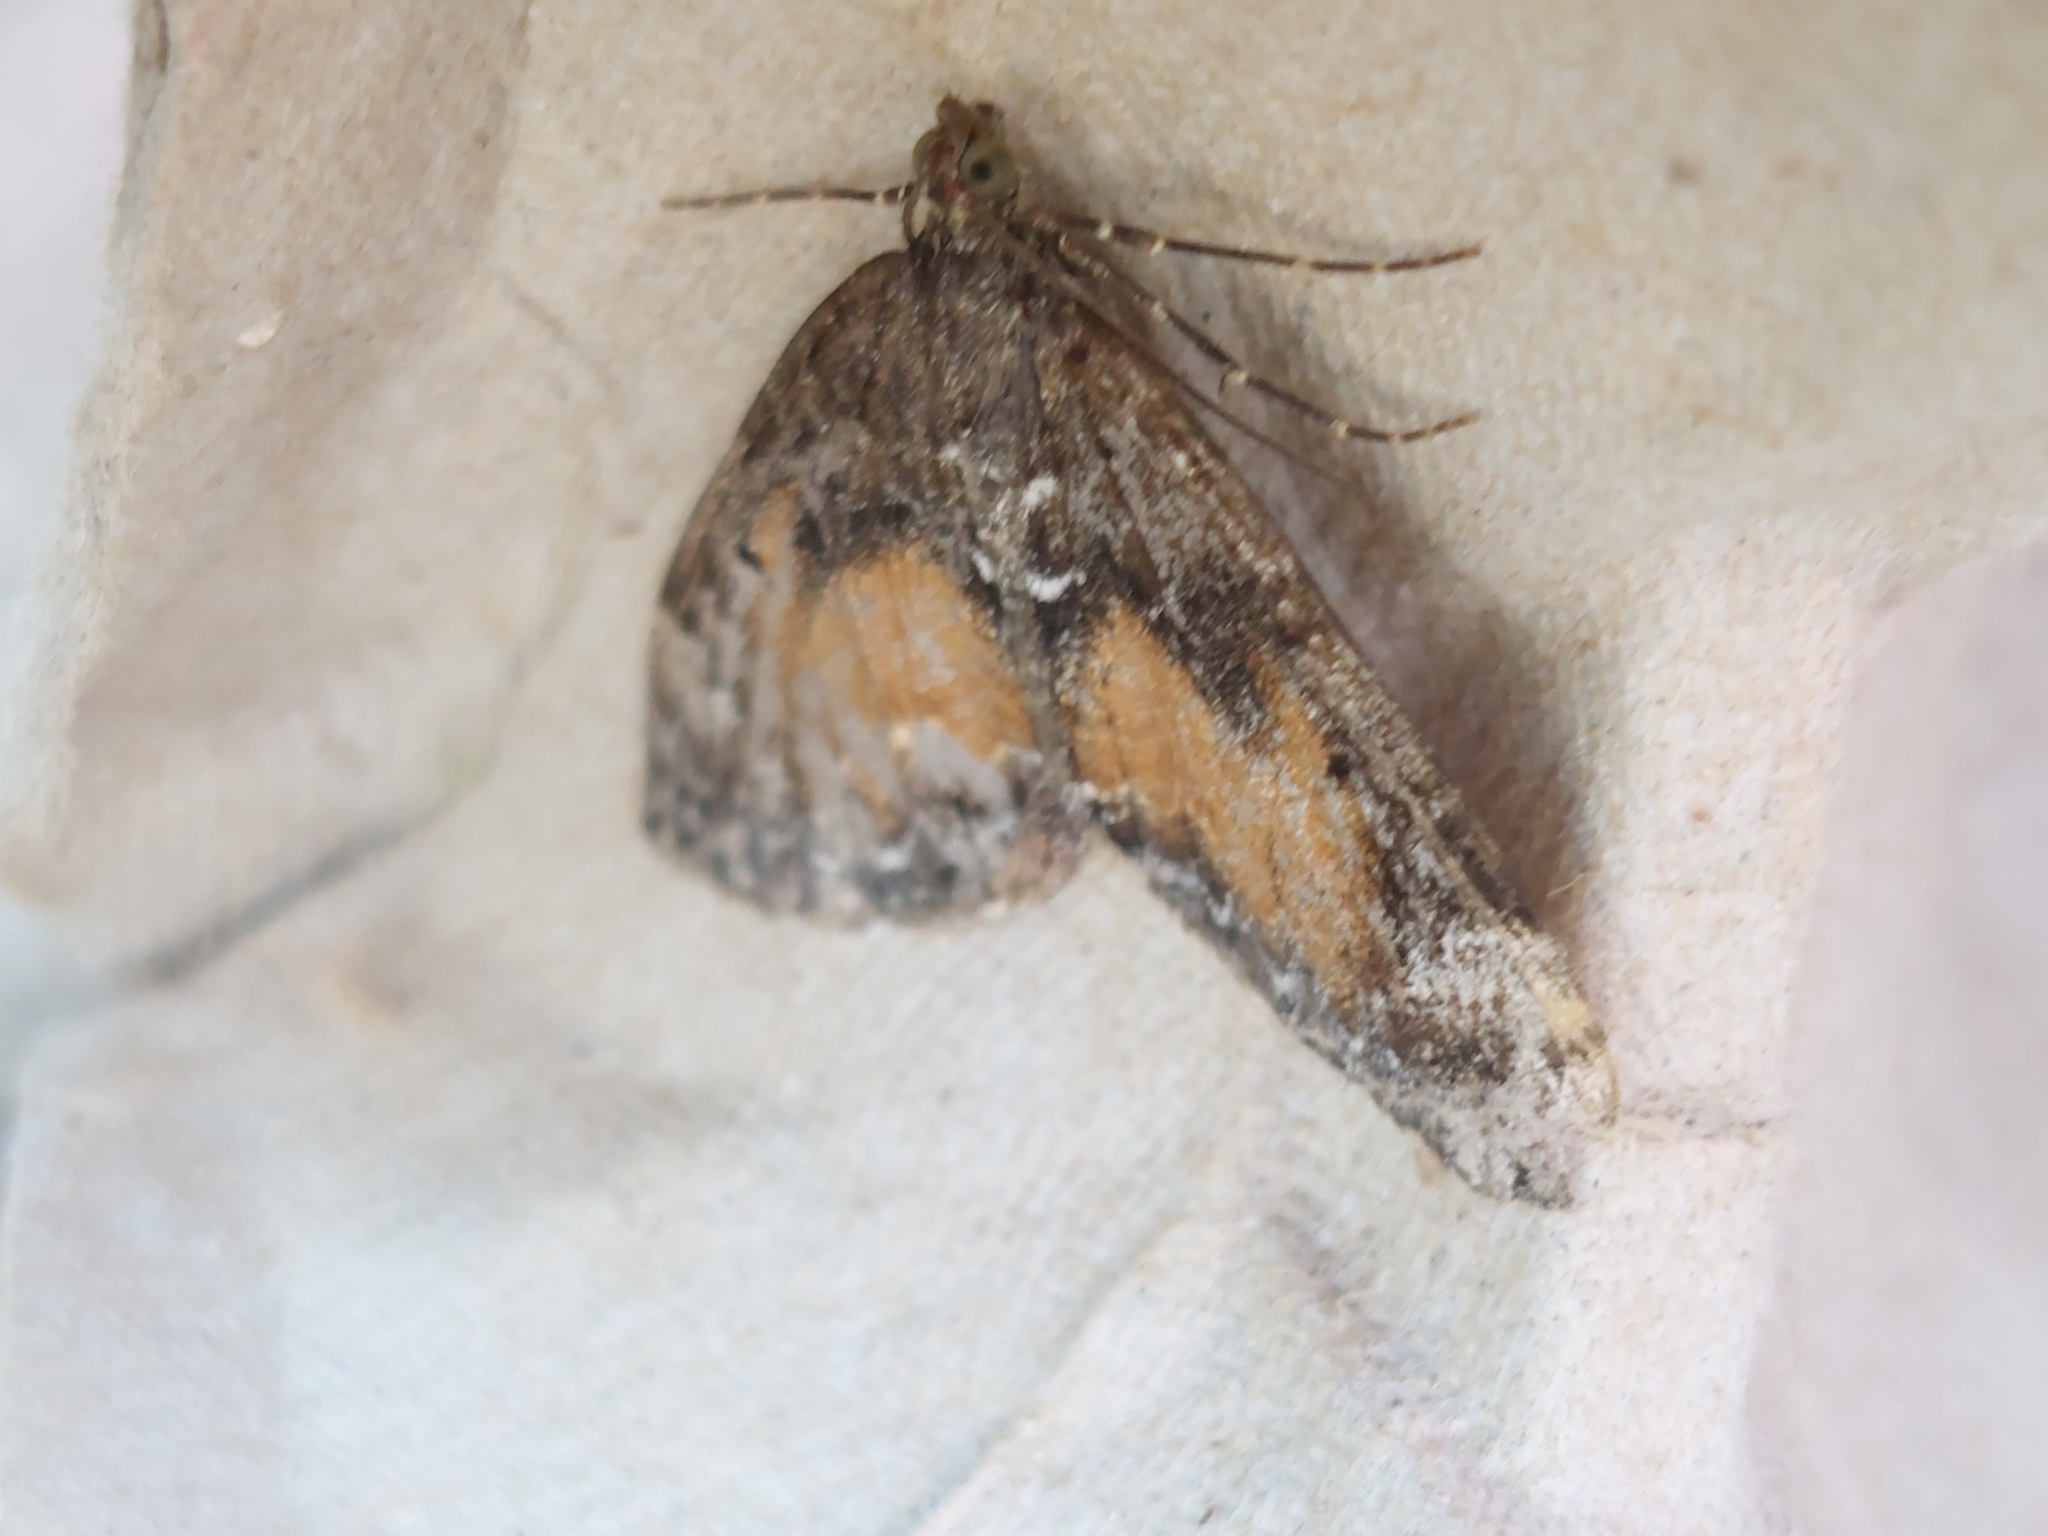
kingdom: Animalia
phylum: Arthropoda
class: Insecta
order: Lepidoptera
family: Geometridae
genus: Dysstroma
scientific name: Dysstroma truncata
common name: Common marbled carpet
